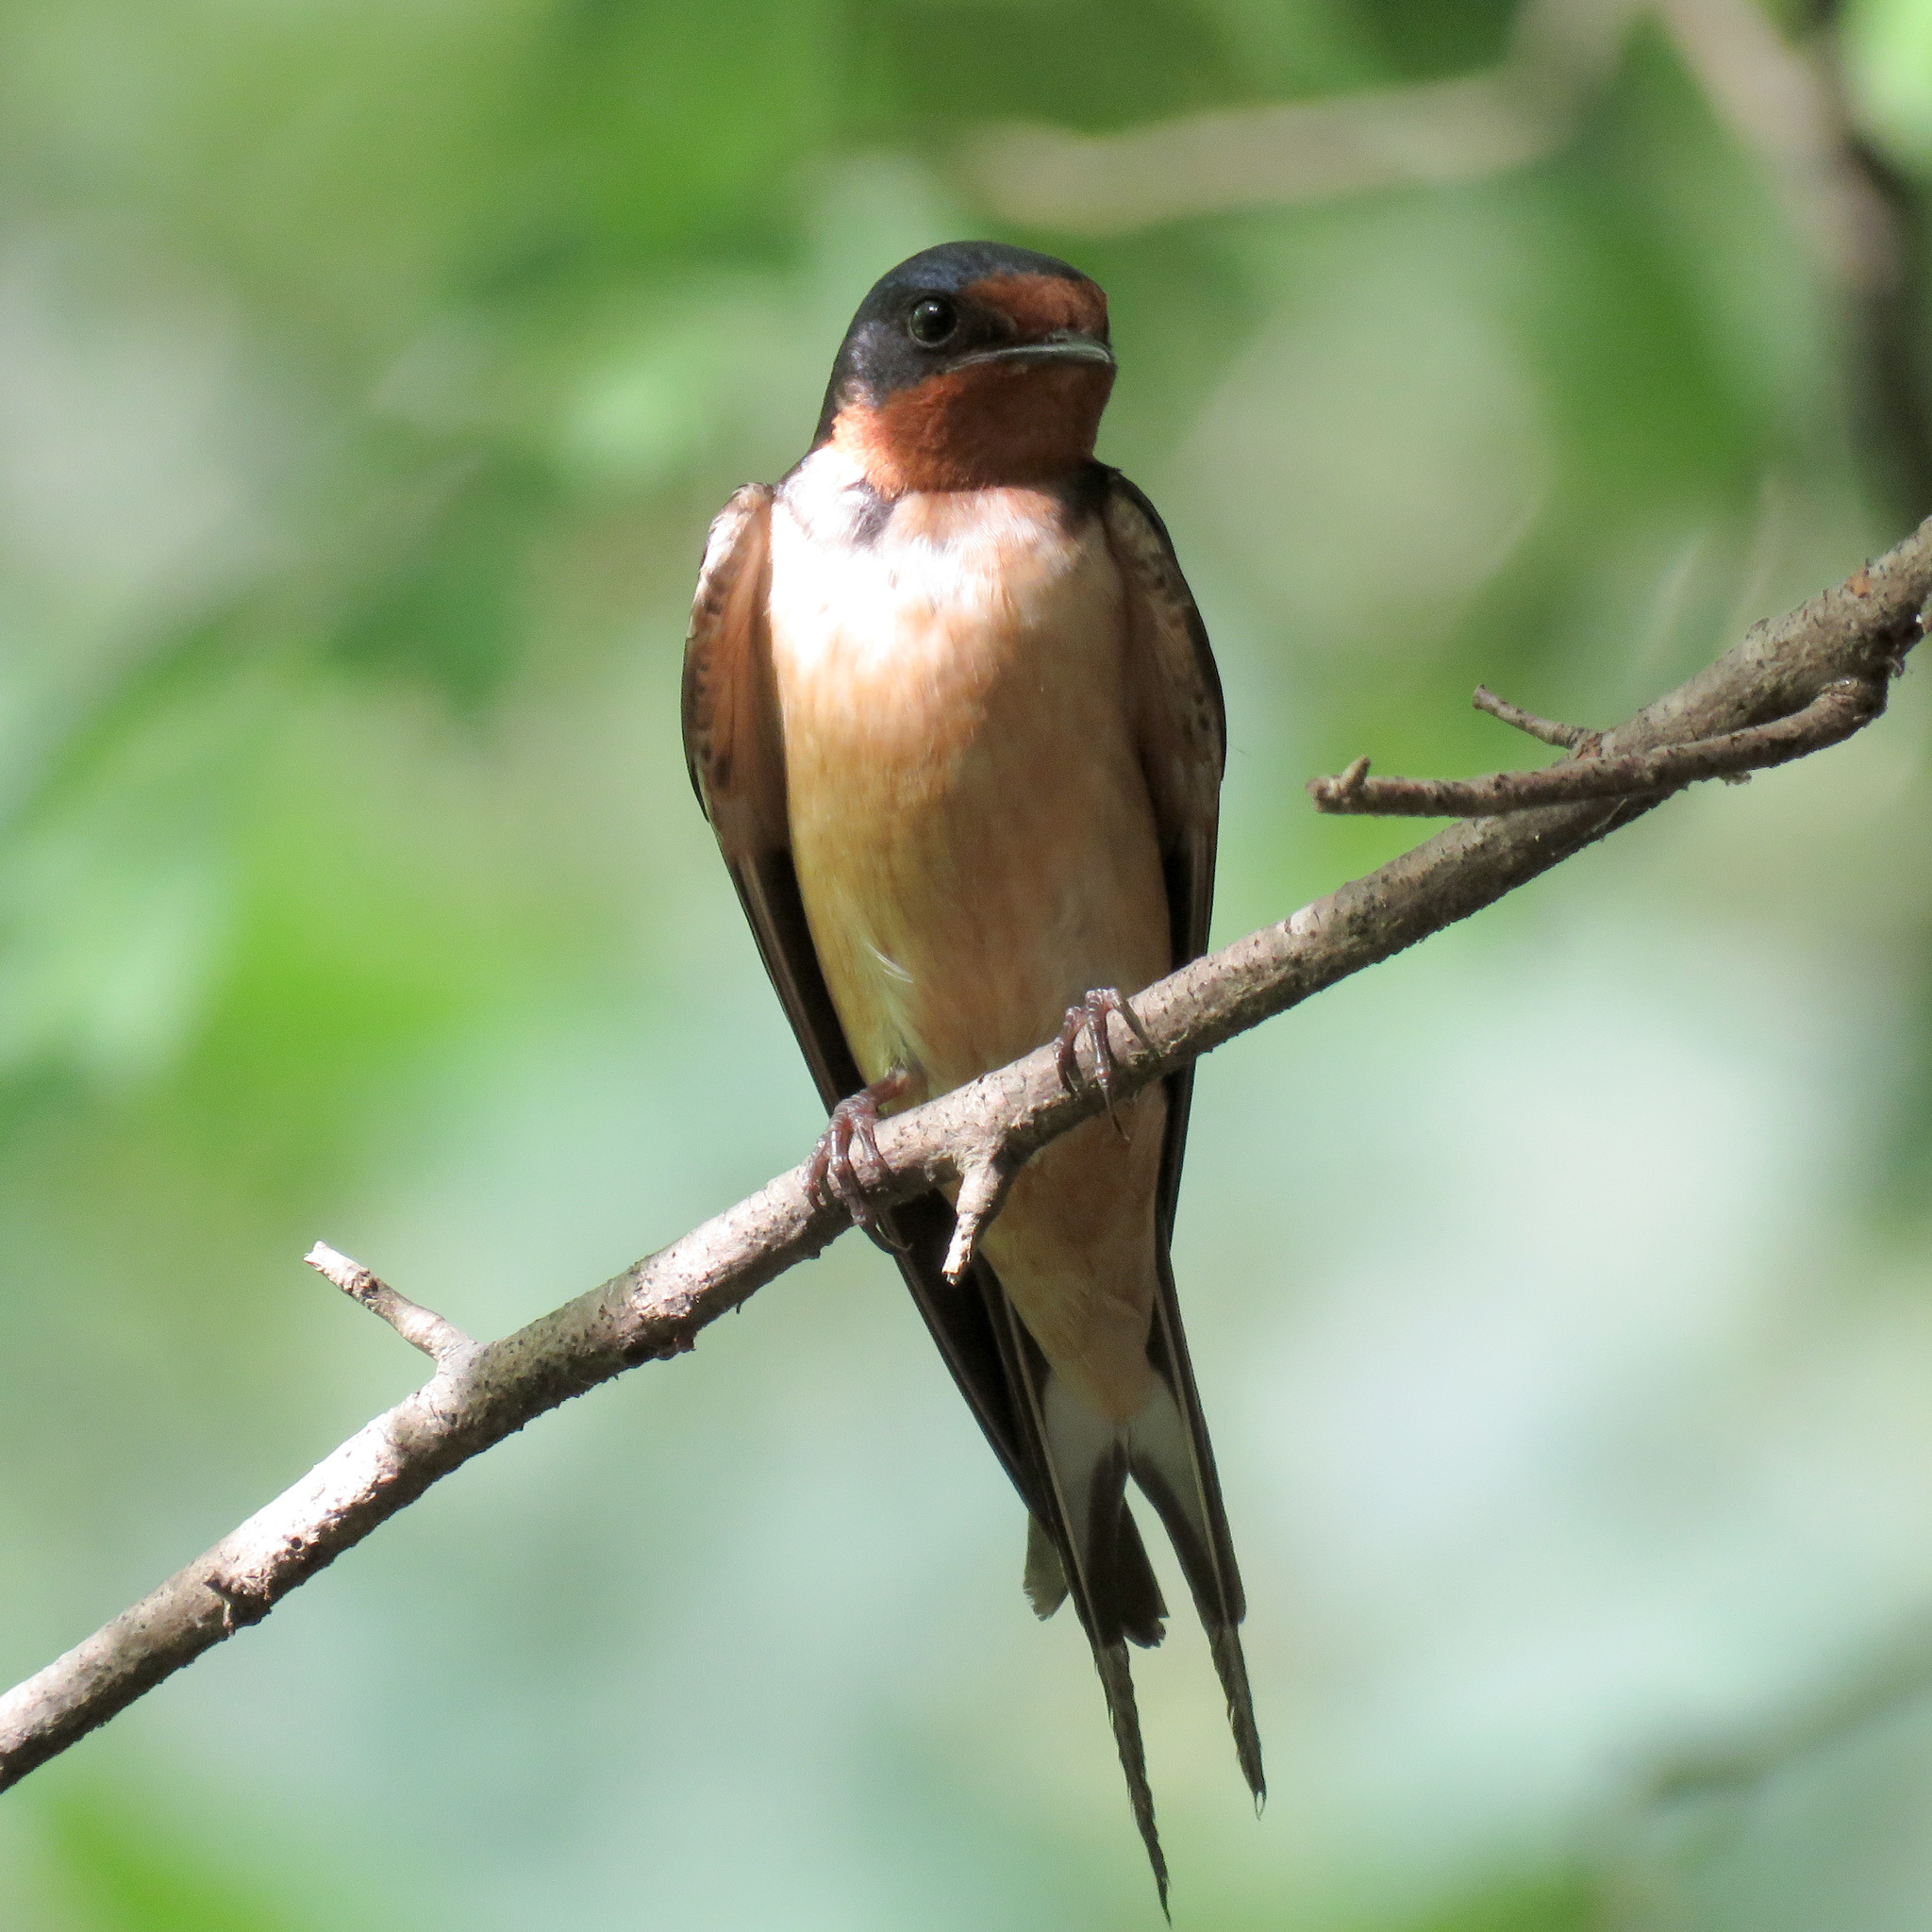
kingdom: Animalia
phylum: Chordata
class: Aves
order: Passeriformes
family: Hirundinidae
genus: Hirundo
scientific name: Hirundo rustica
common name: Barn swallow
